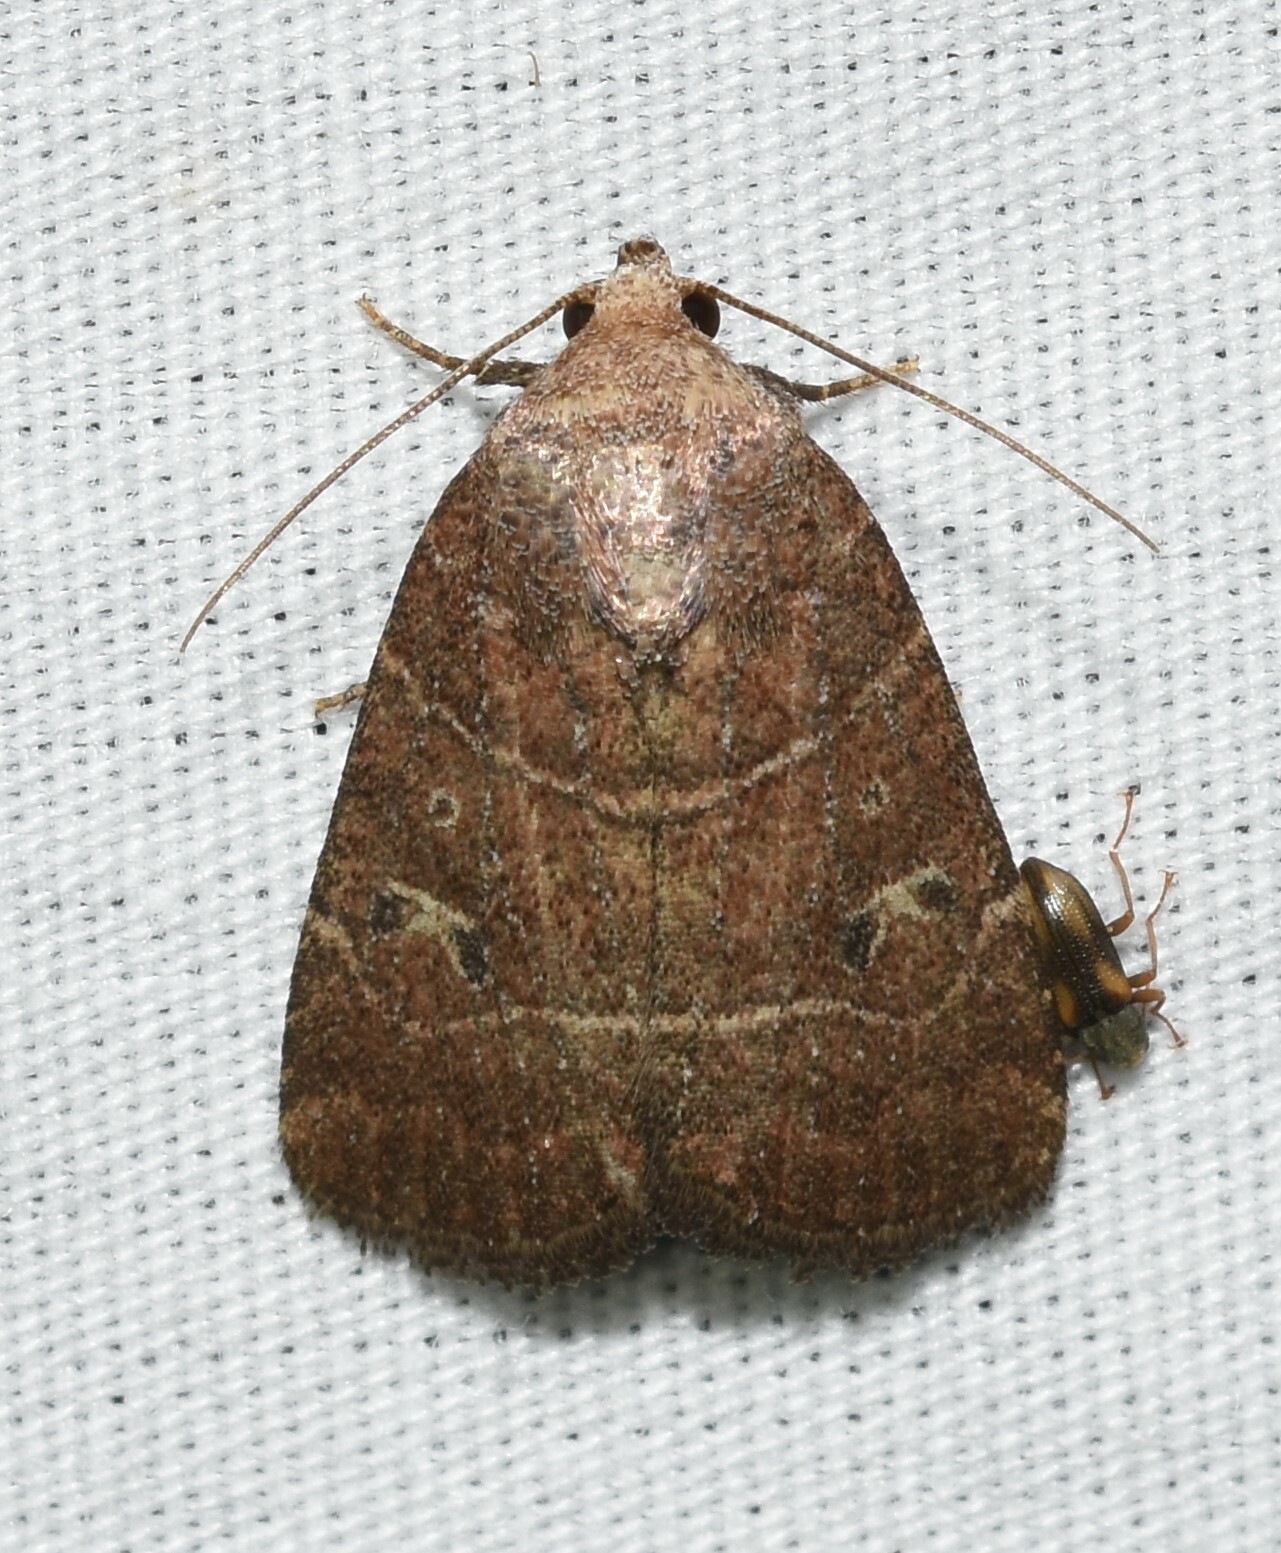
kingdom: Animalia
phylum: Arthropoda
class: Insecta
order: Lepidoptera
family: Noctuidae
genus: Elaphria
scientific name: Elaphria grata
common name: Grateful midget moth
